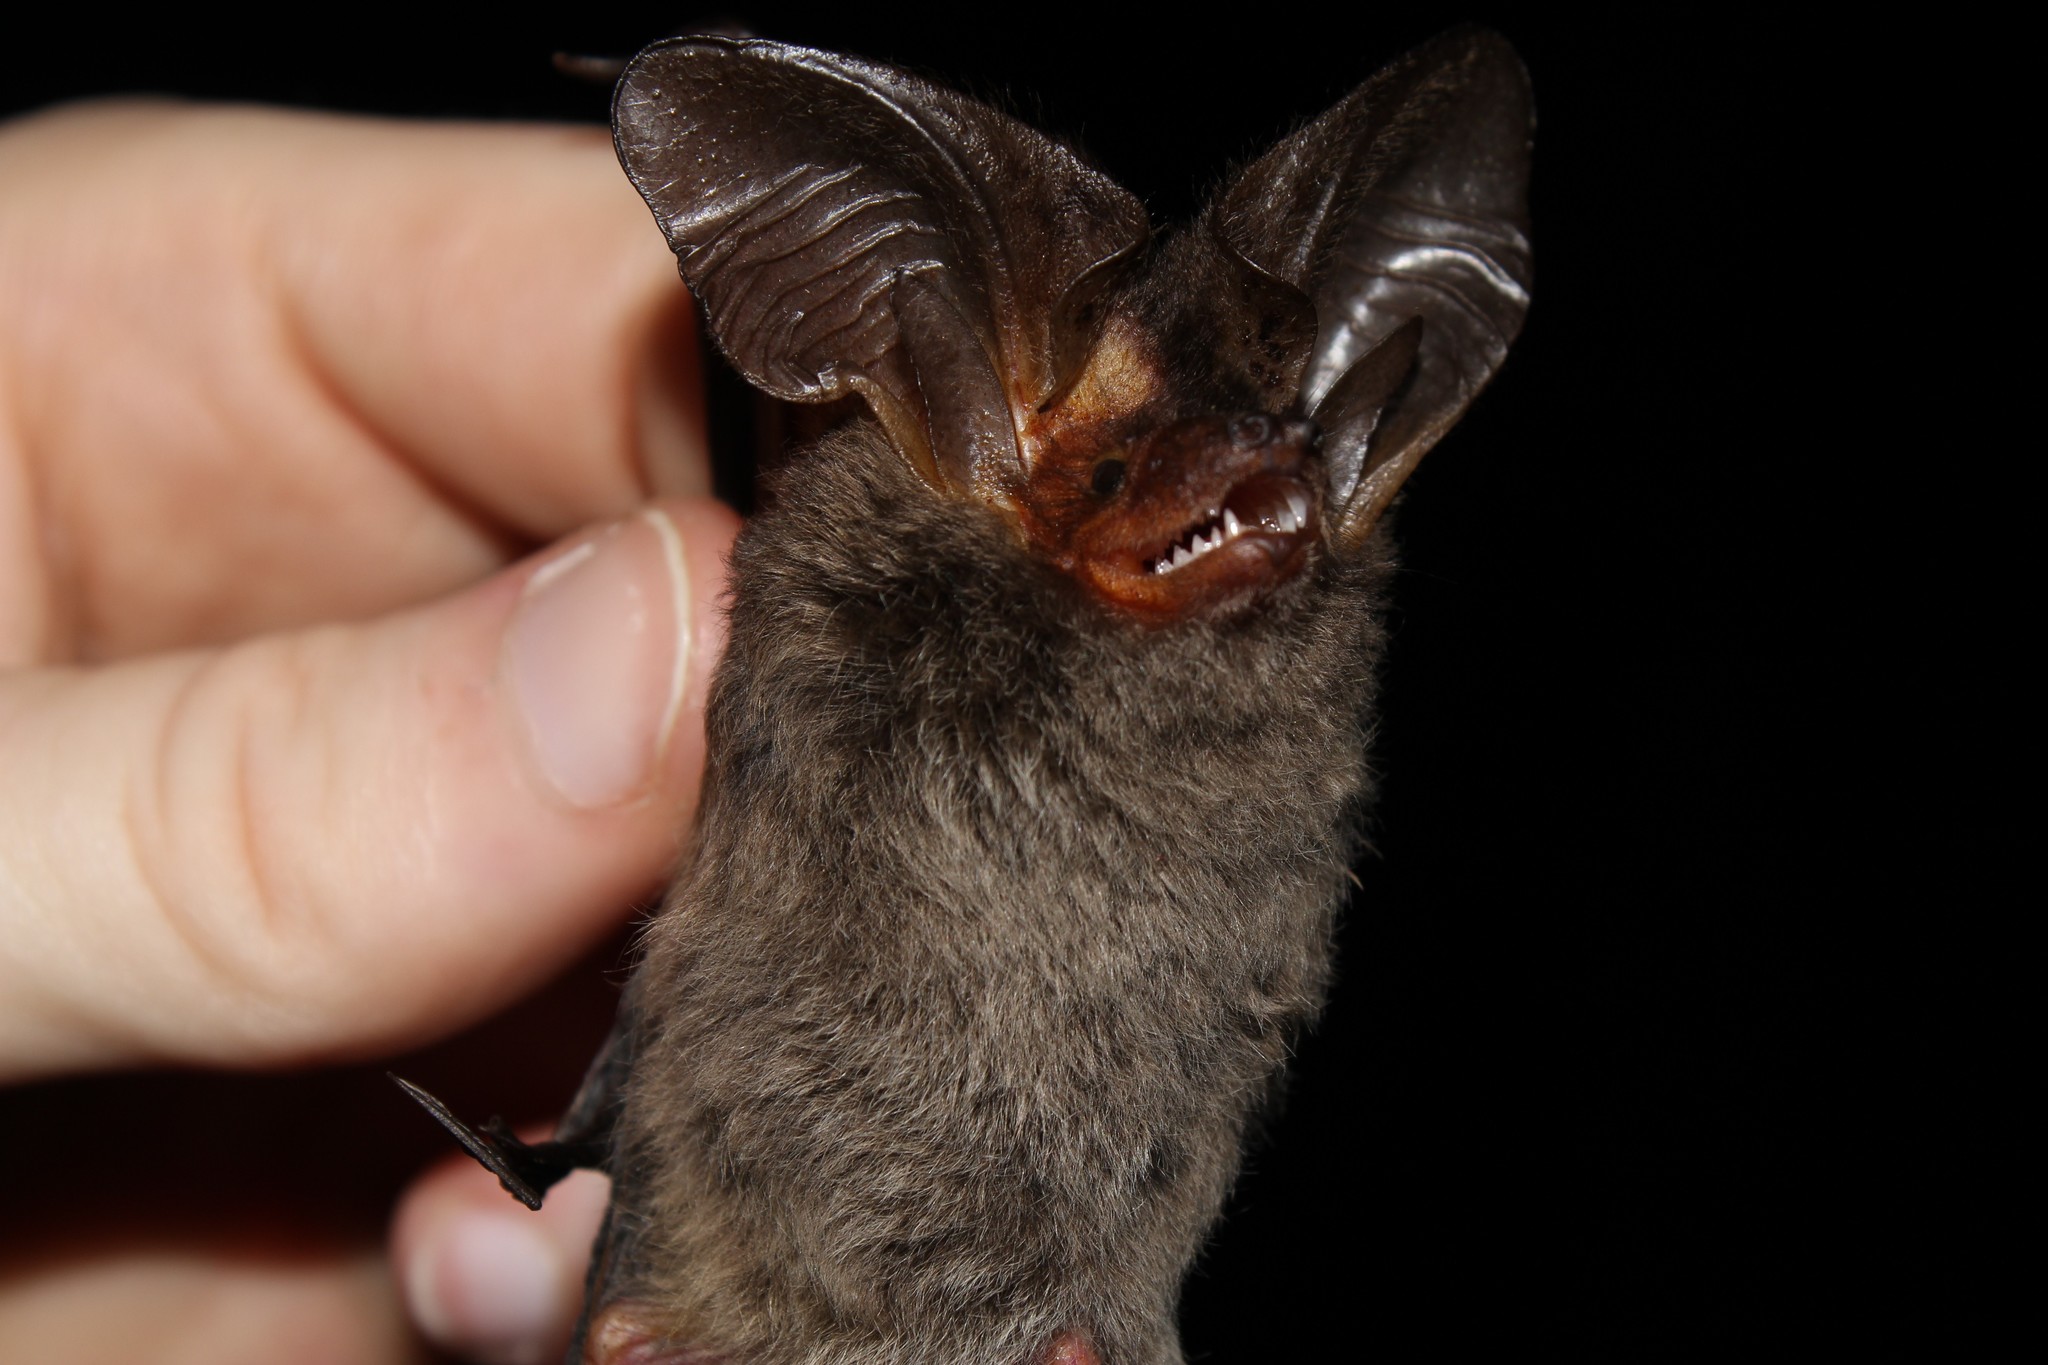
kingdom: Animalia
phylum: Chordata
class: Mammalia
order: Chiroptera
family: Vespertilionidae
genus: Histiotus
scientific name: Histiotus velatus
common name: Tropical big-eared brown bat
